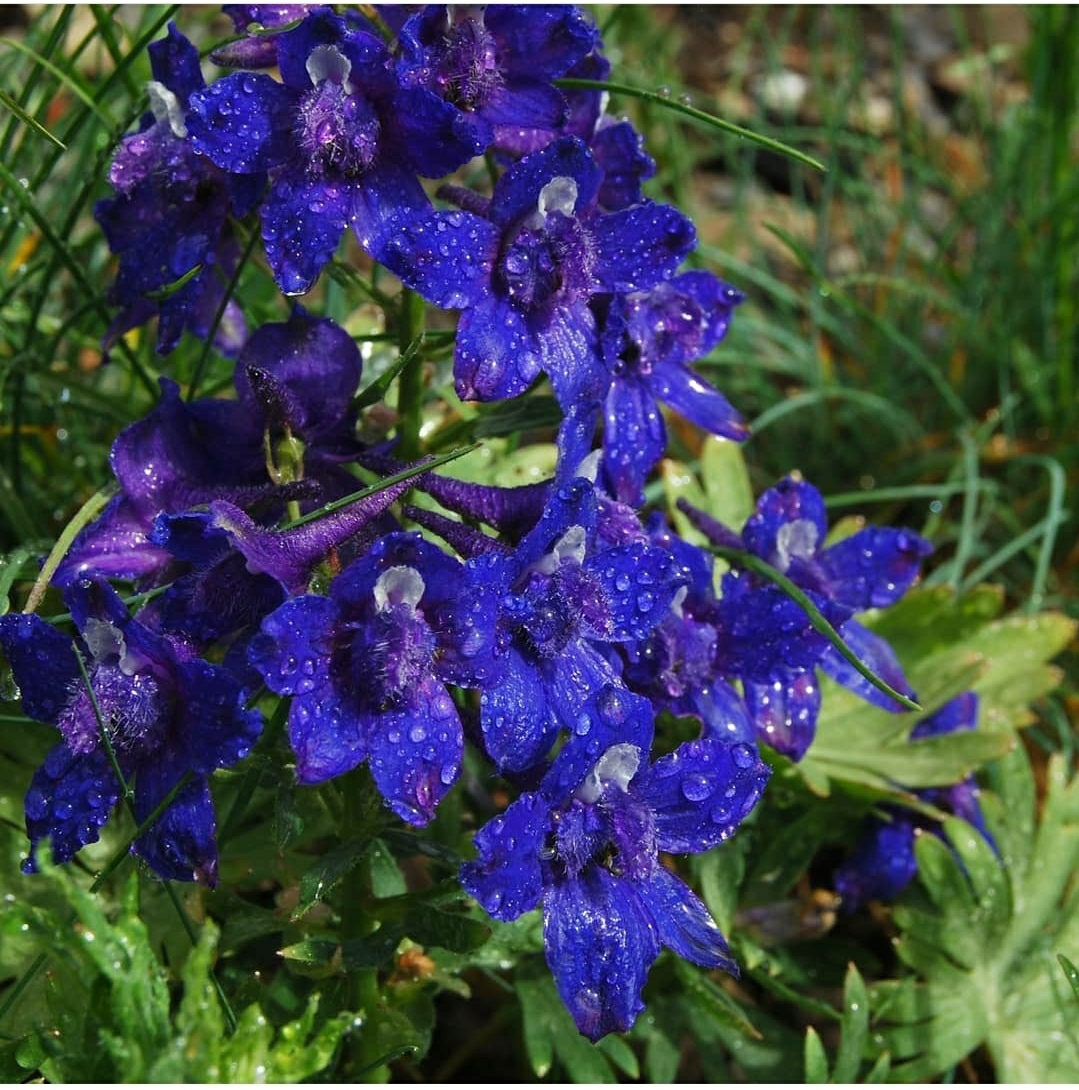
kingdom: Plantae
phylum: Tracheophyta
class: Magnoliopsida
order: Ranunculales
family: Ranunculaceae
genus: Delphinium
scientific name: Delphinium glareosum
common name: Olympic mountain larkspur
